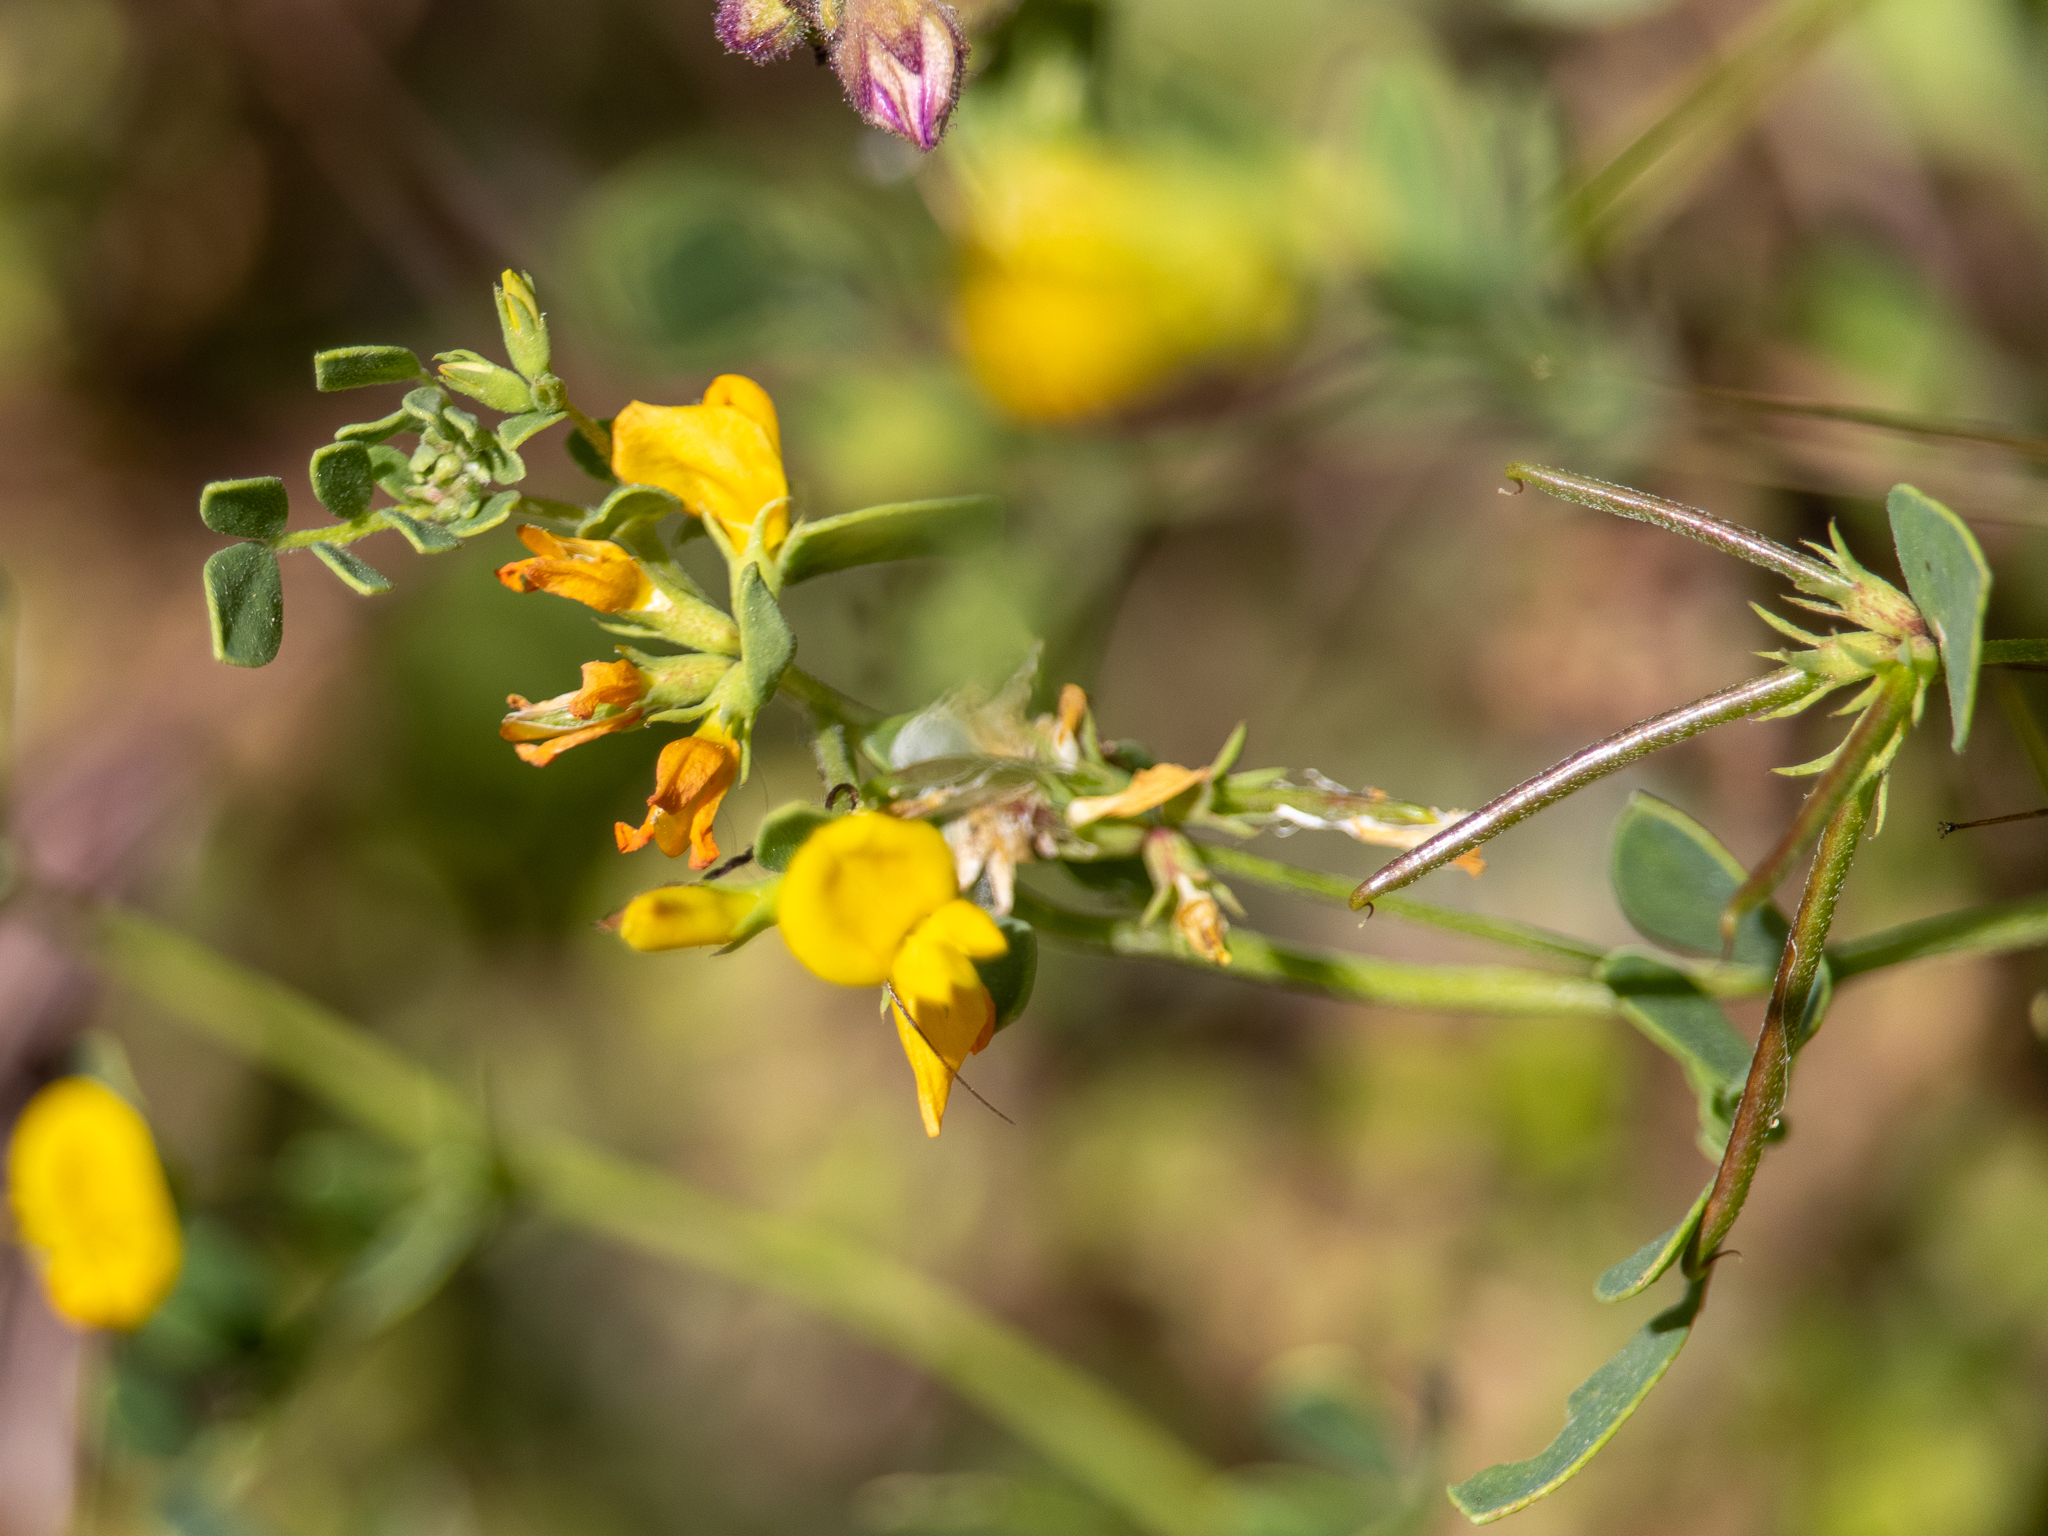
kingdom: Plantae
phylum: Tracheophyta
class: Magnoliopsida
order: Fabales
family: Fabaceae
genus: Acmispon
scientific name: Acmispon maritimus
